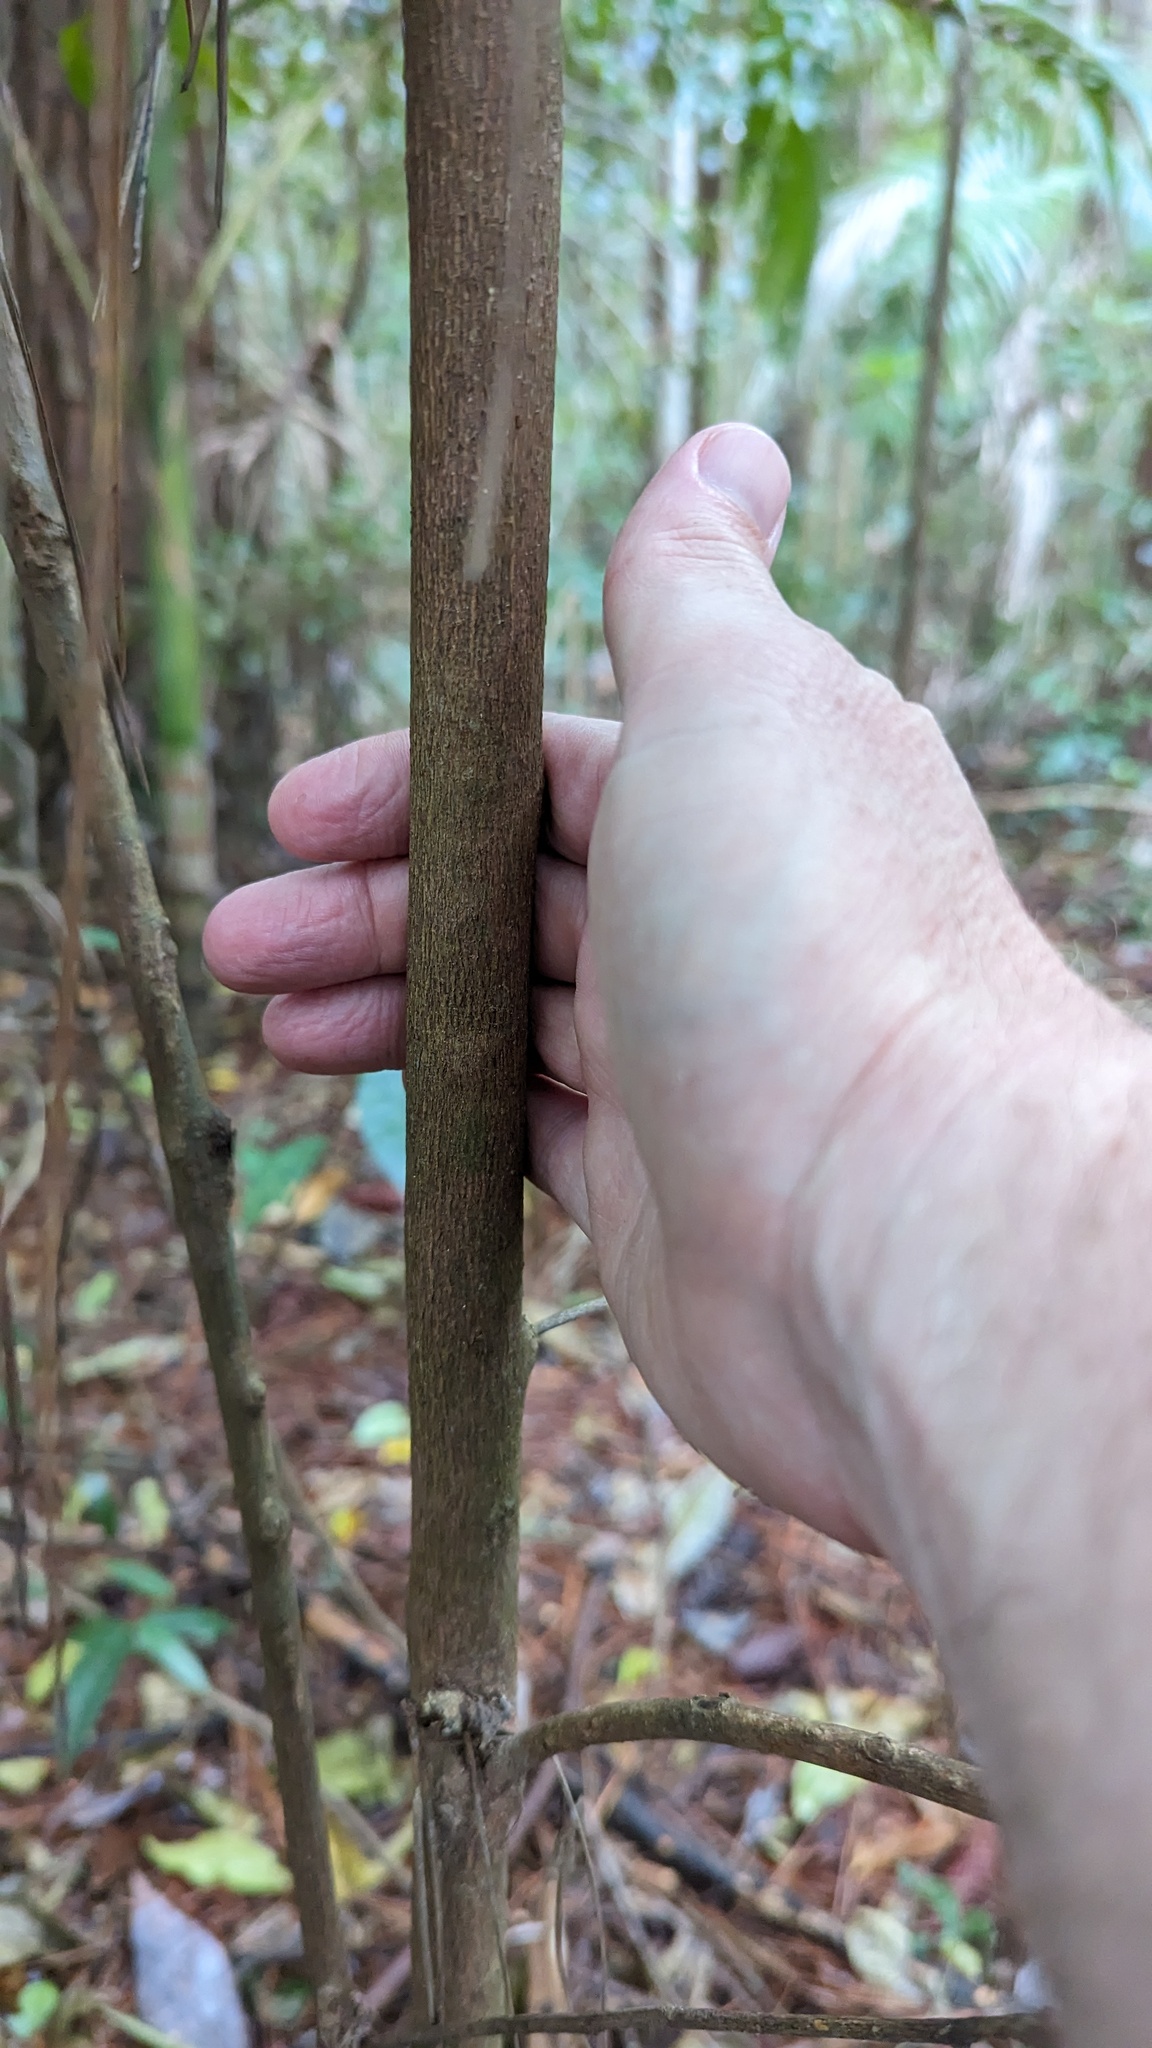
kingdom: Plantae
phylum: Tracheophyta
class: Magnoliopsida
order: Sapindales
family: Meliaceae
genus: Synoum
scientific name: Synoum glandulosum
